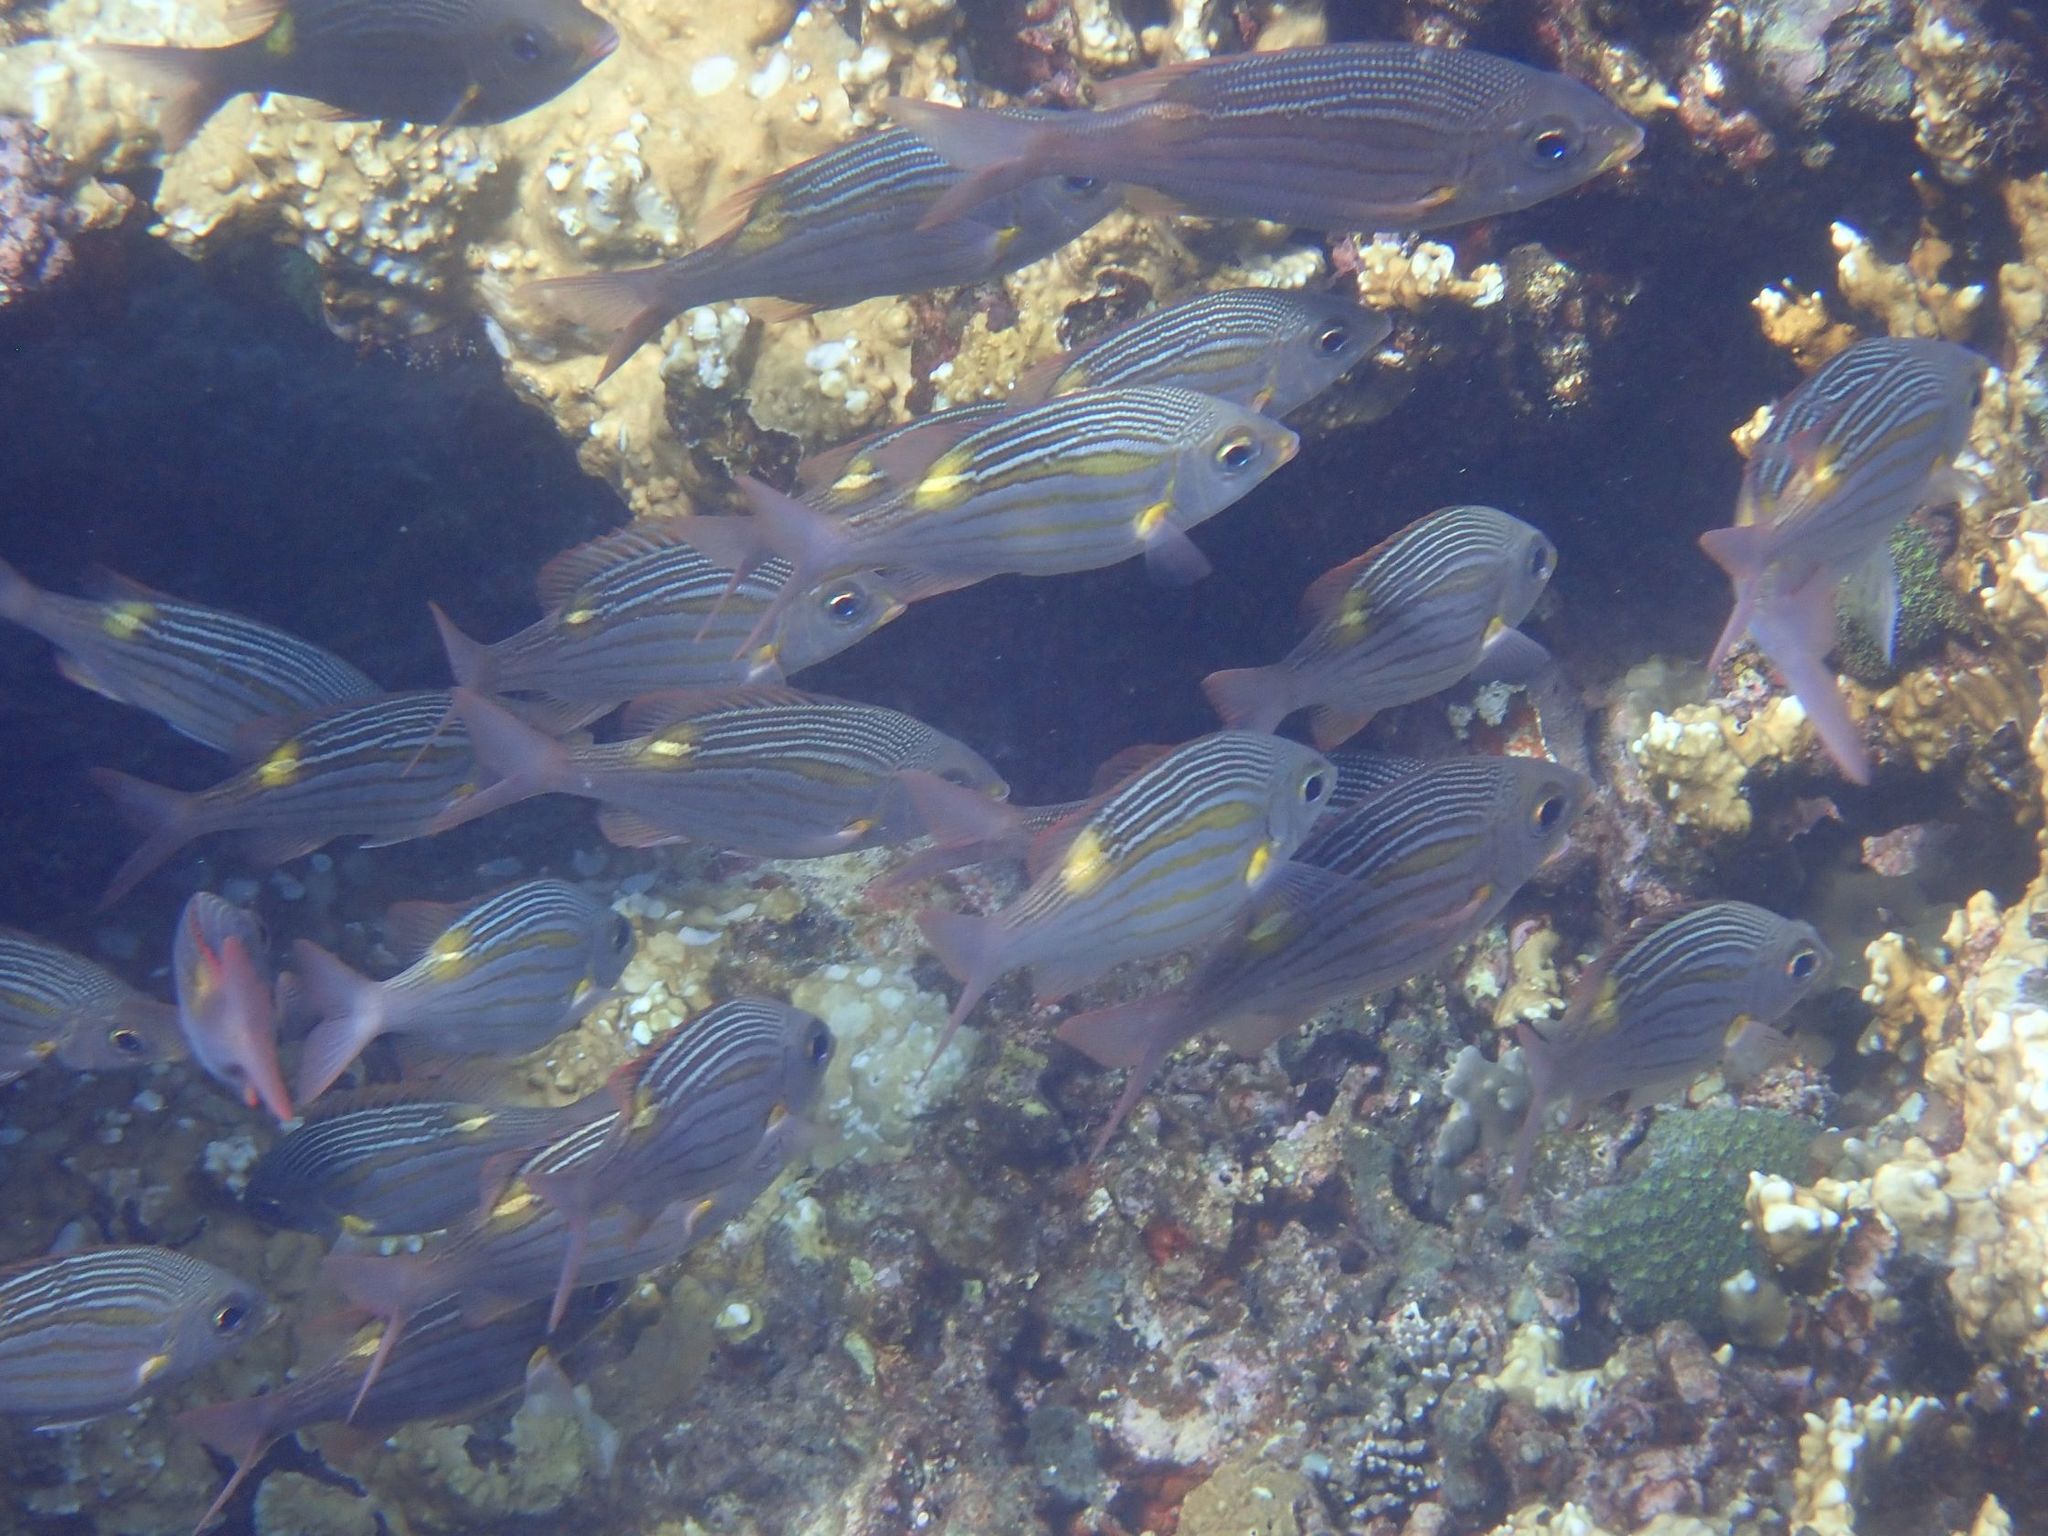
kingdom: Animalia
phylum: Chordata
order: Perciformes
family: Lethrinidae
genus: Gnathodentex
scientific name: Gnathodentex aureolineatus
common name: Gold-lined sea bream
